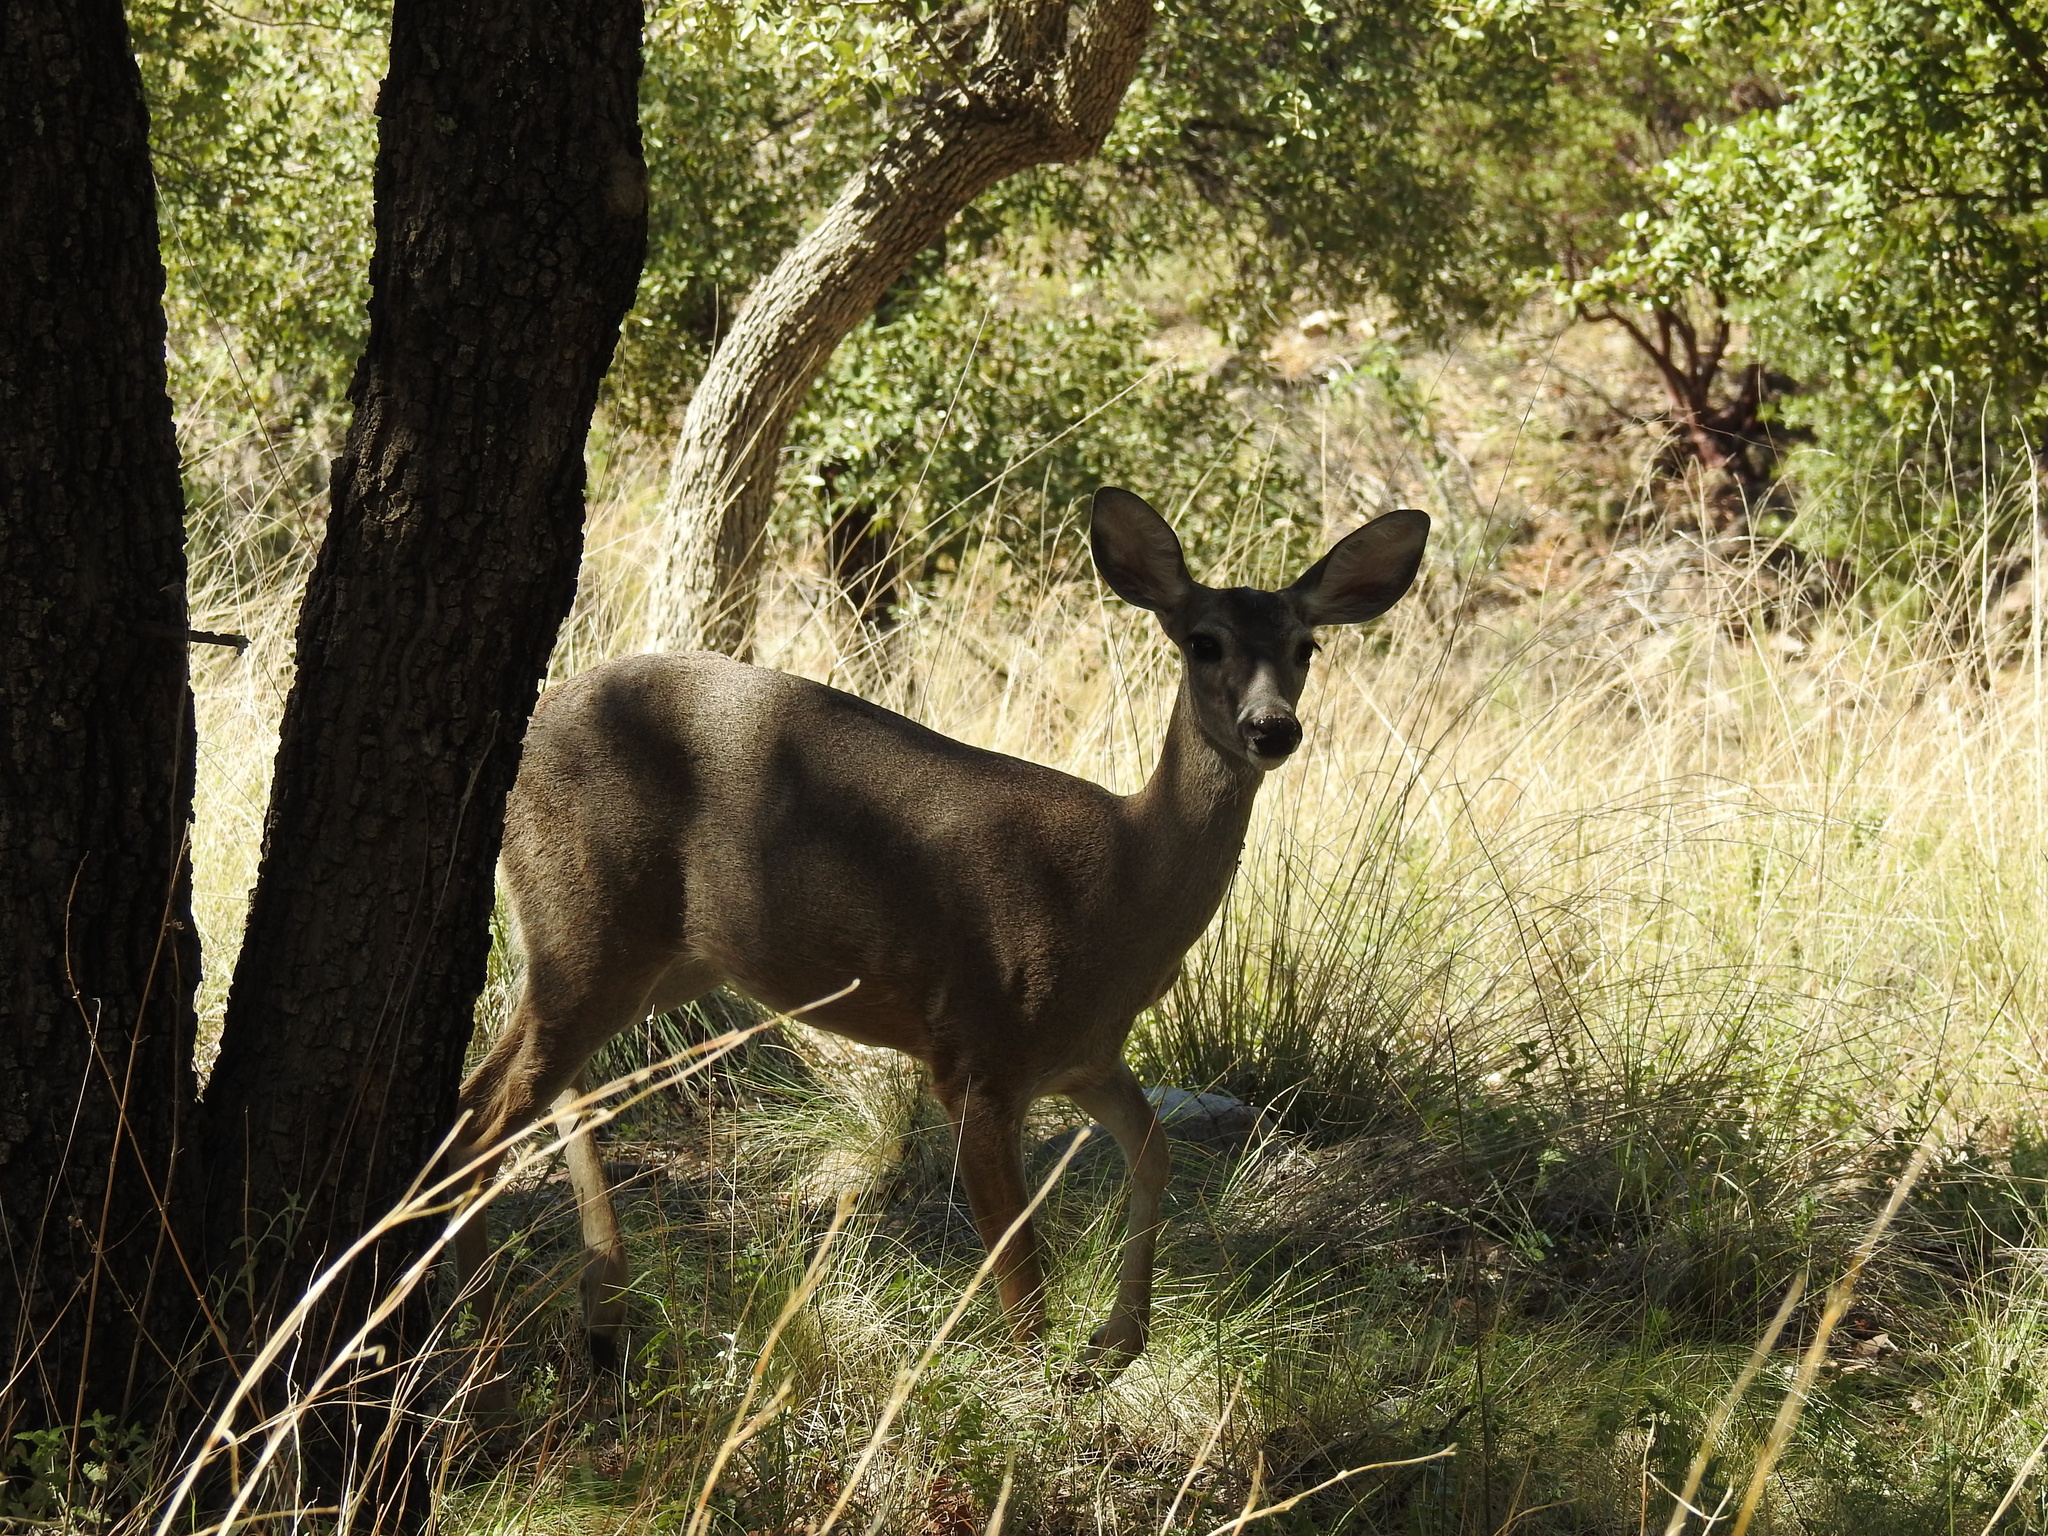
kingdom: Animalia
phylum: Chordata
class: Mammalia
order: Artiodactyla
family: Cervidae
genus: Odocoileus
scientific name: Odocoileus virginianus
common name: White-tailed deer
